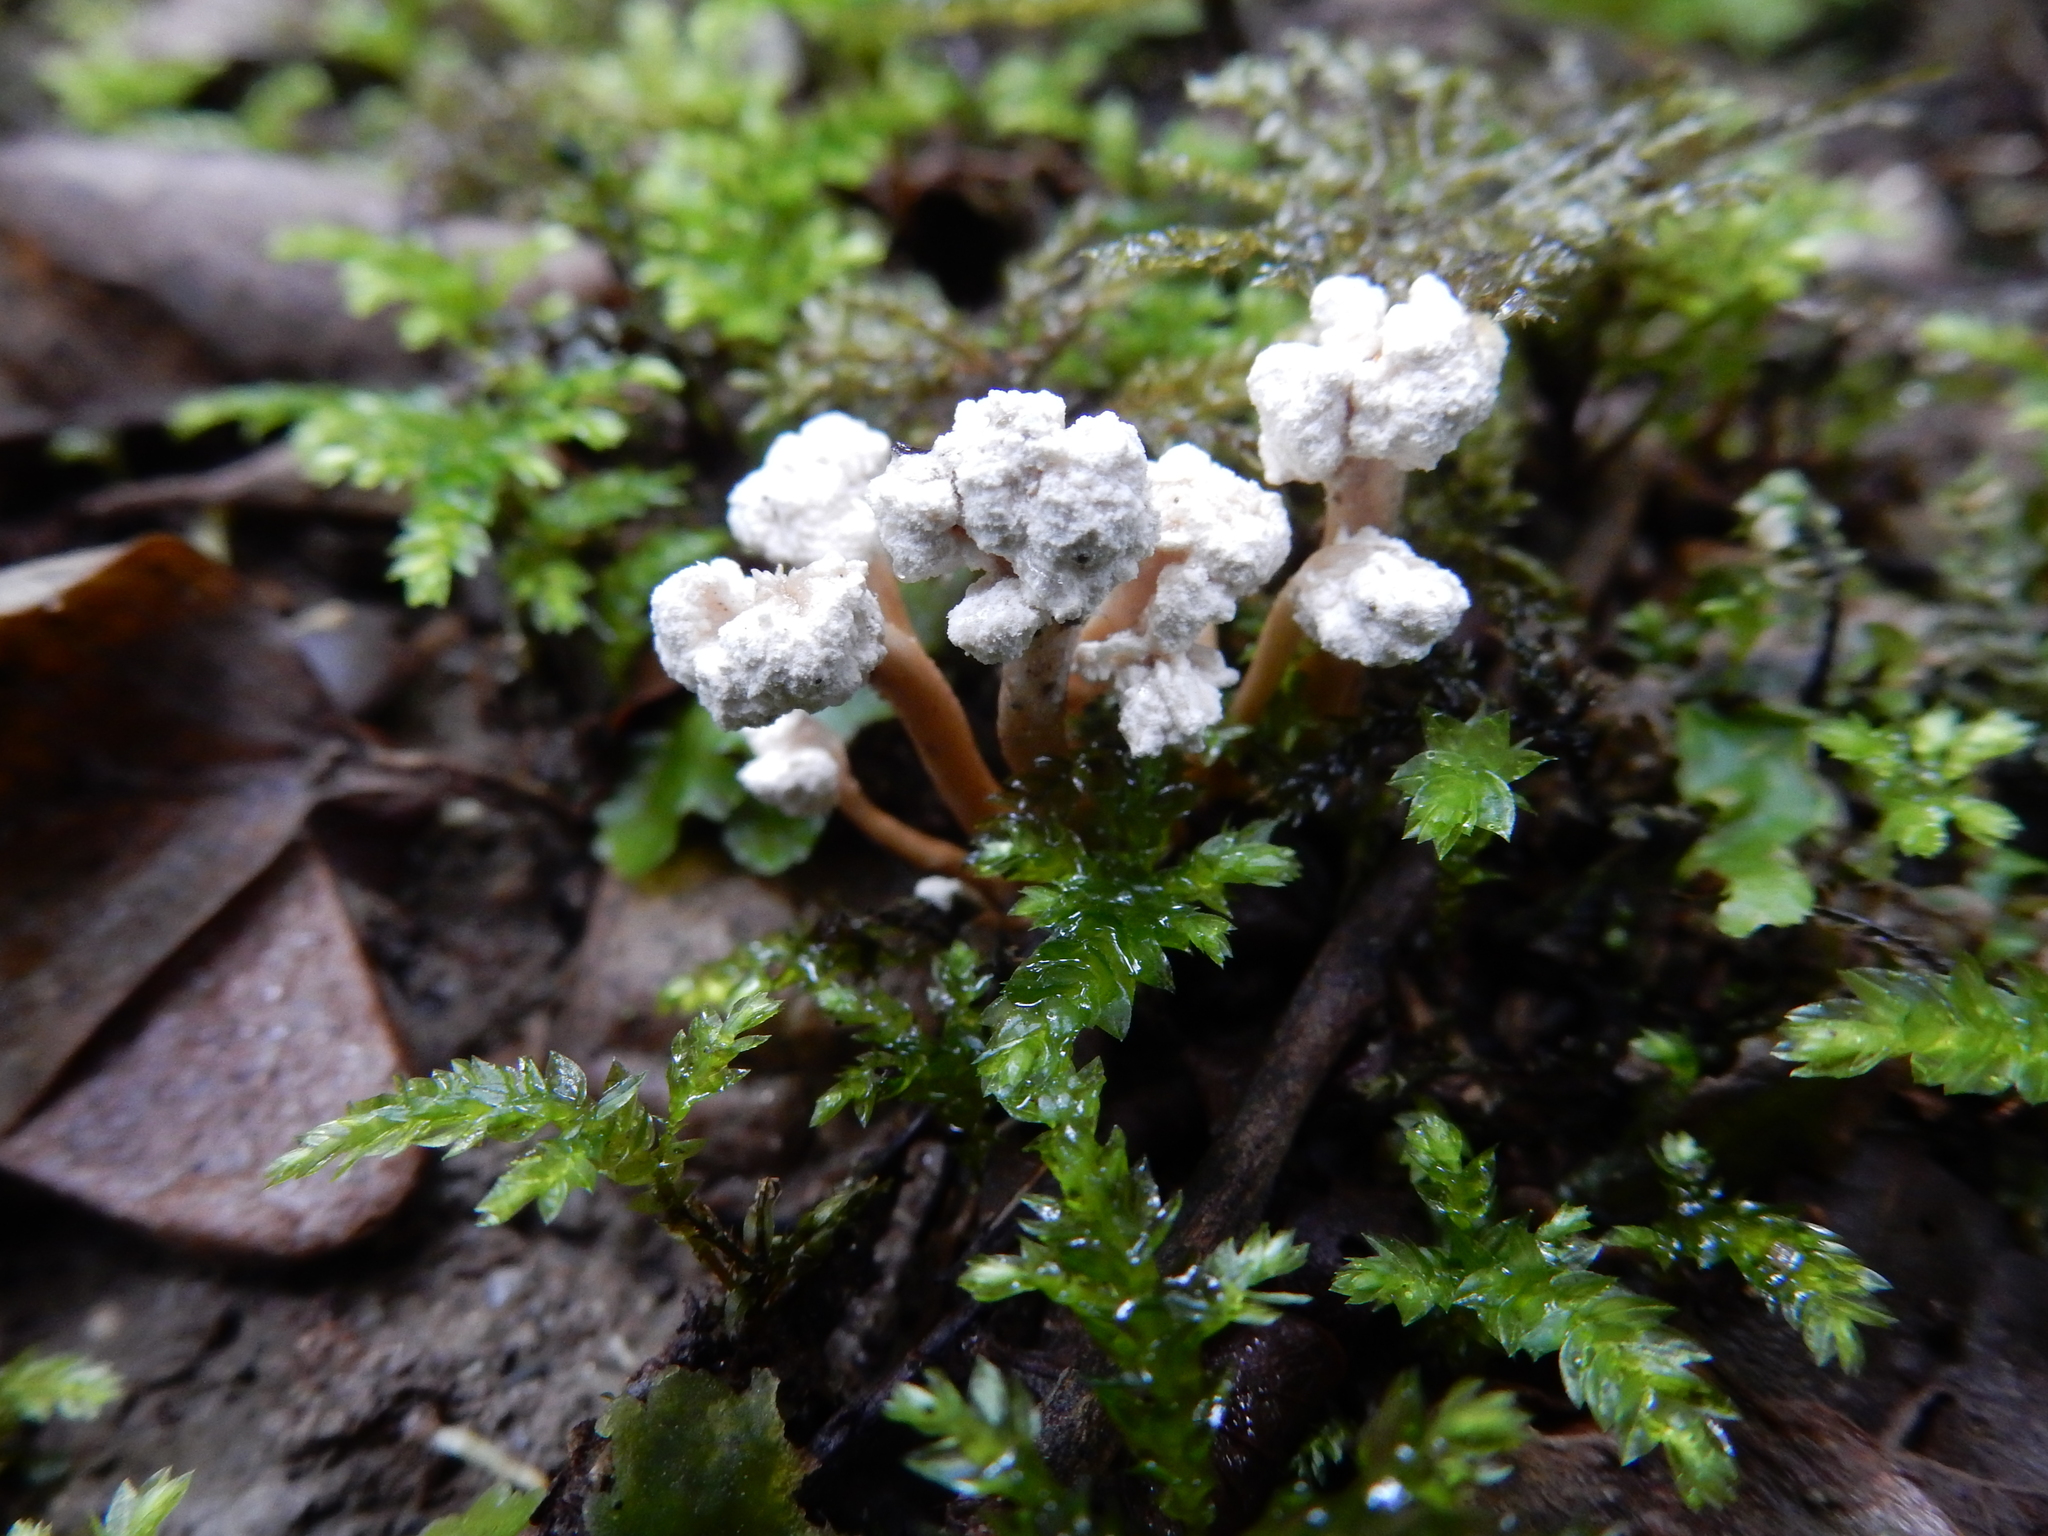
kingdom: Fungi
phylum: Ascomycota
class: Sordariomycetes
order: Hypocreales
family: Cordycipitaceae
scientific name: Cordycipitaceae
